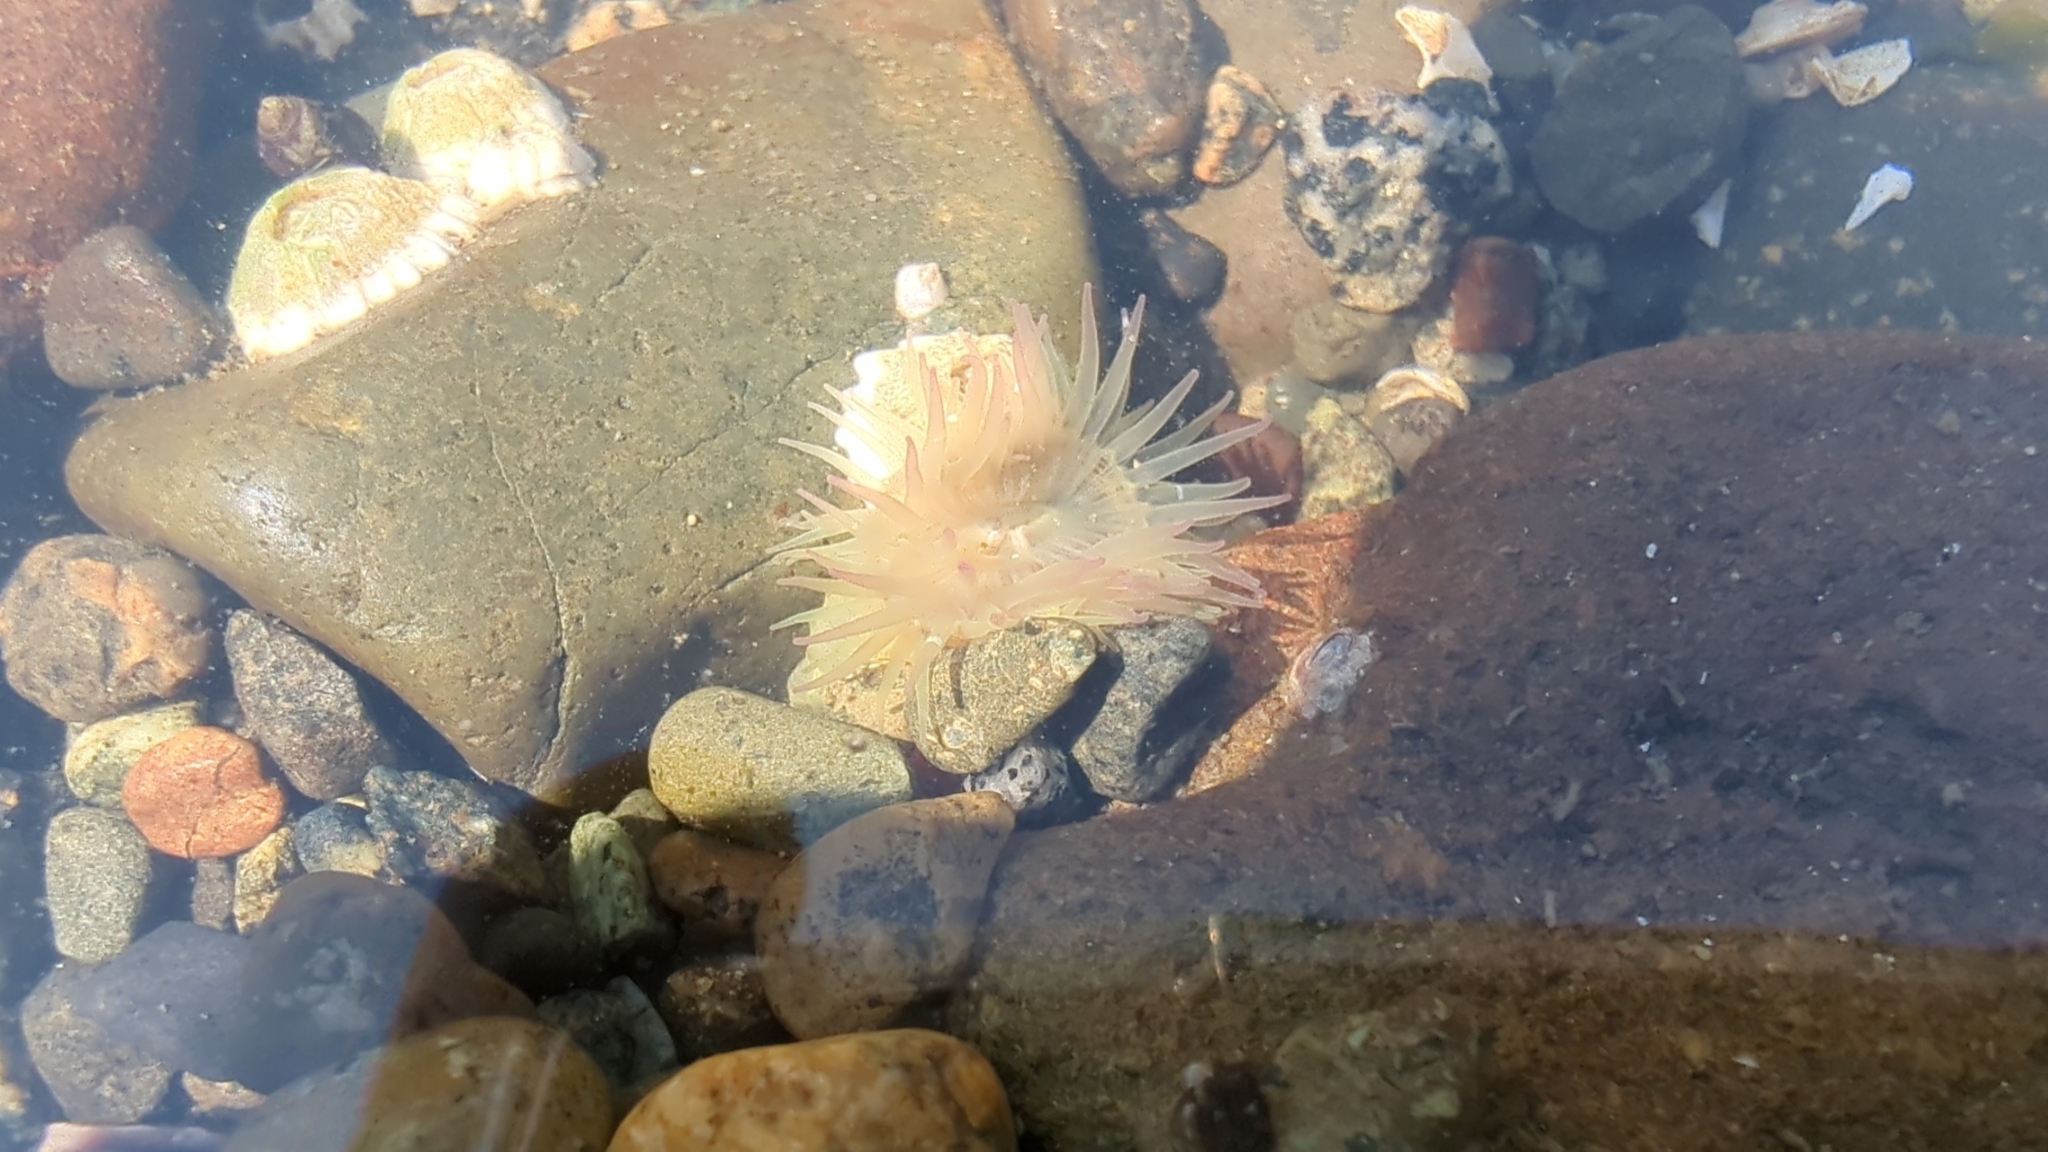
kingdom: Animalia
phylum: Cnidaria
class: Anthozoa
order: Actiniaria
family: Actiniidae
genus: Anthopleura
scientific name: Anthopleura elegantissima
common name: Clonal anemone
